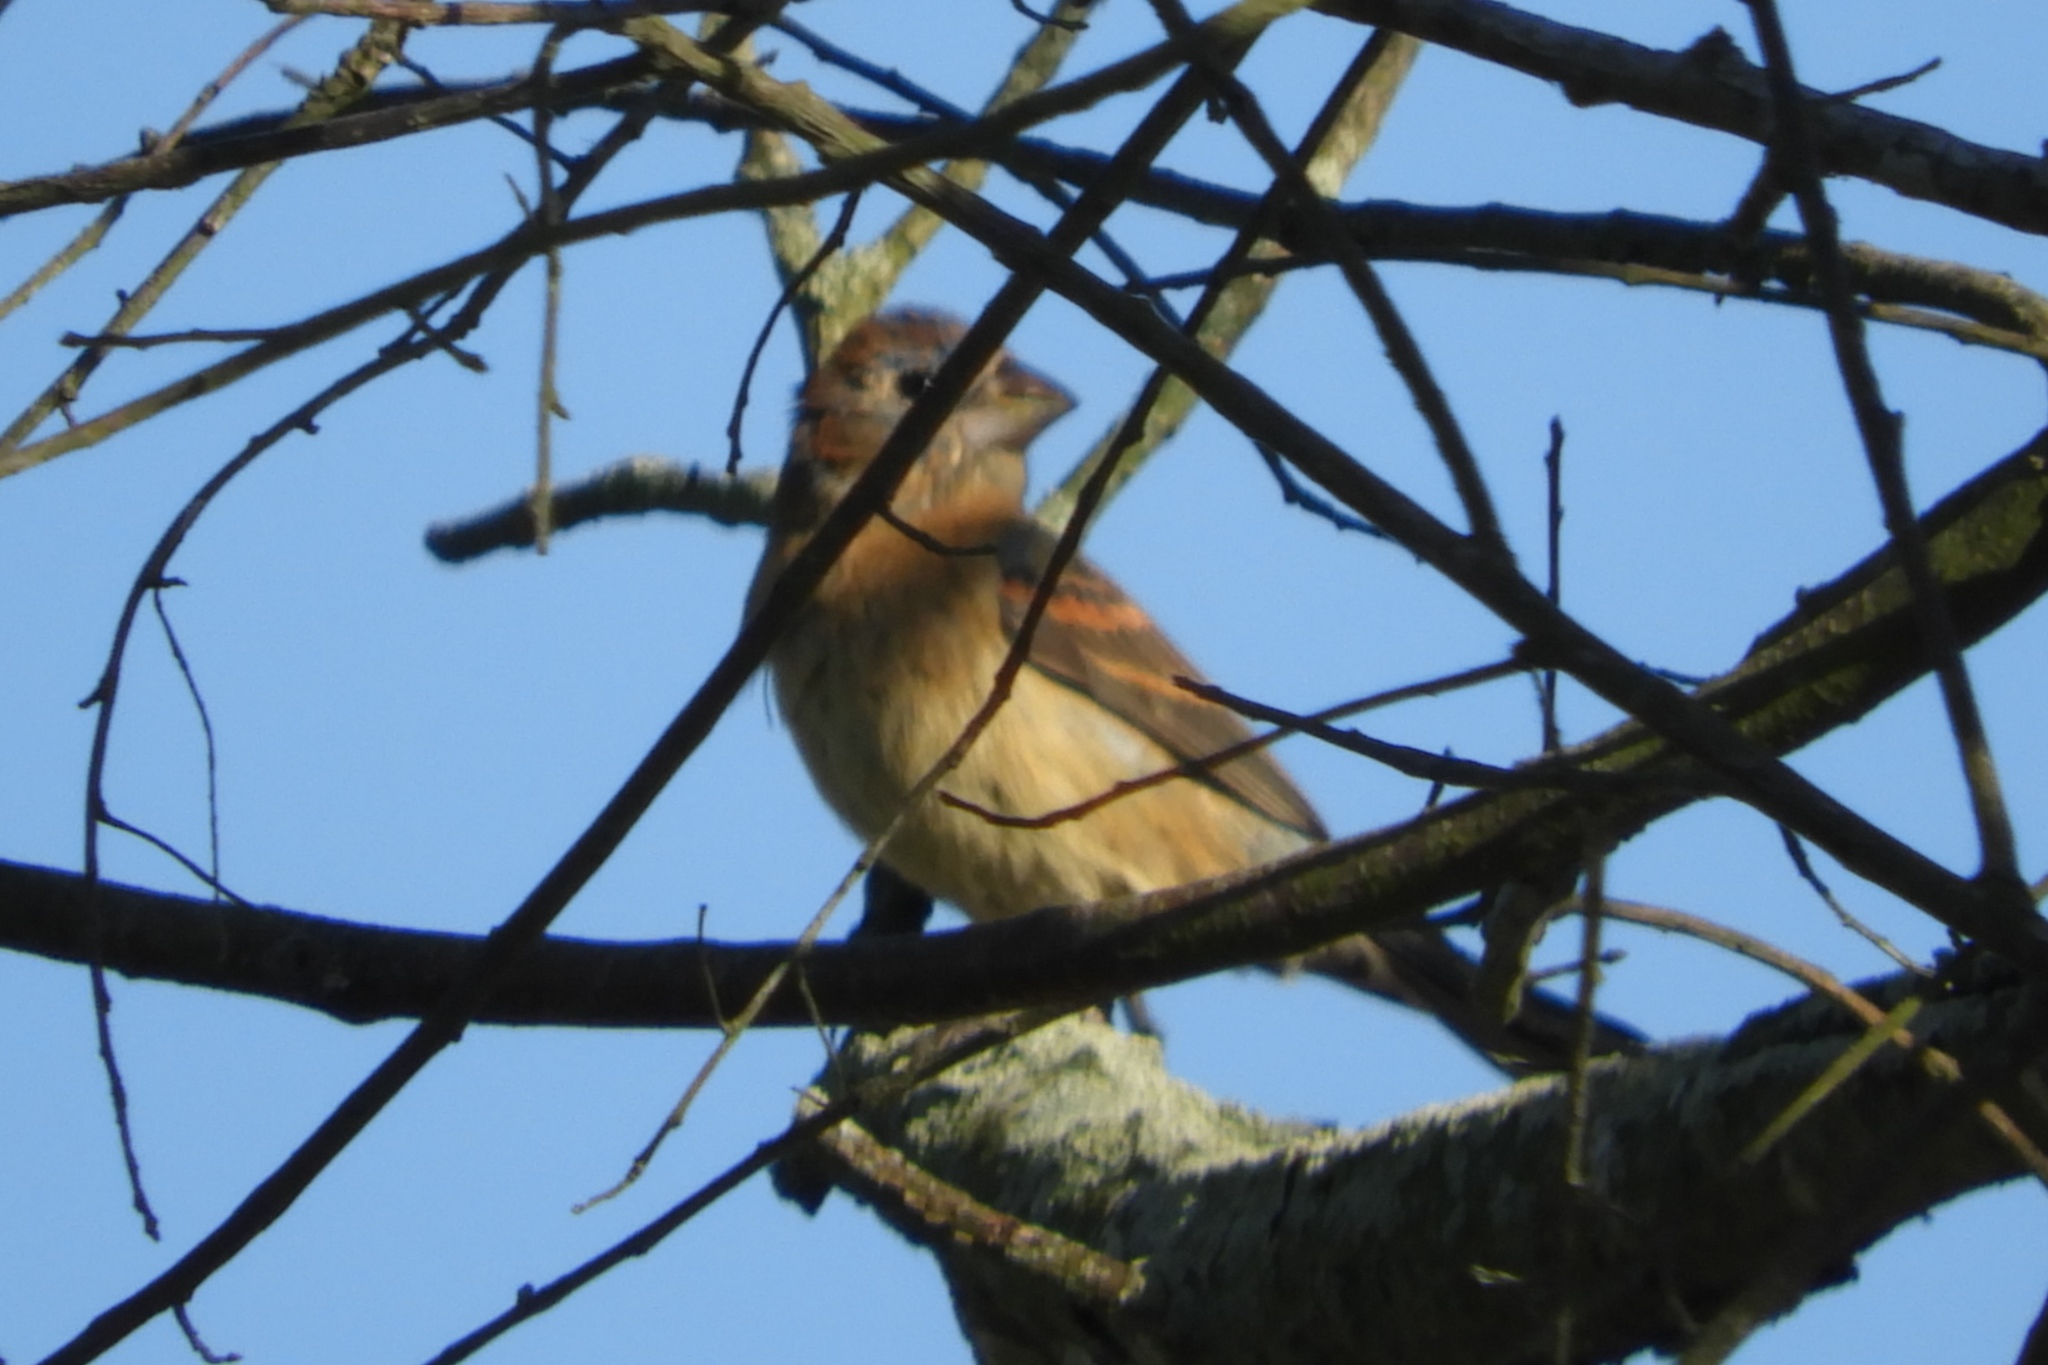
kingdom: Animalia
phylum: Chordata
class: Aves
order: Passeriformes
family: Cardinalidae
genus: Passerina
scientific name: Passerina caerulea
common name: Blue grosbeak
